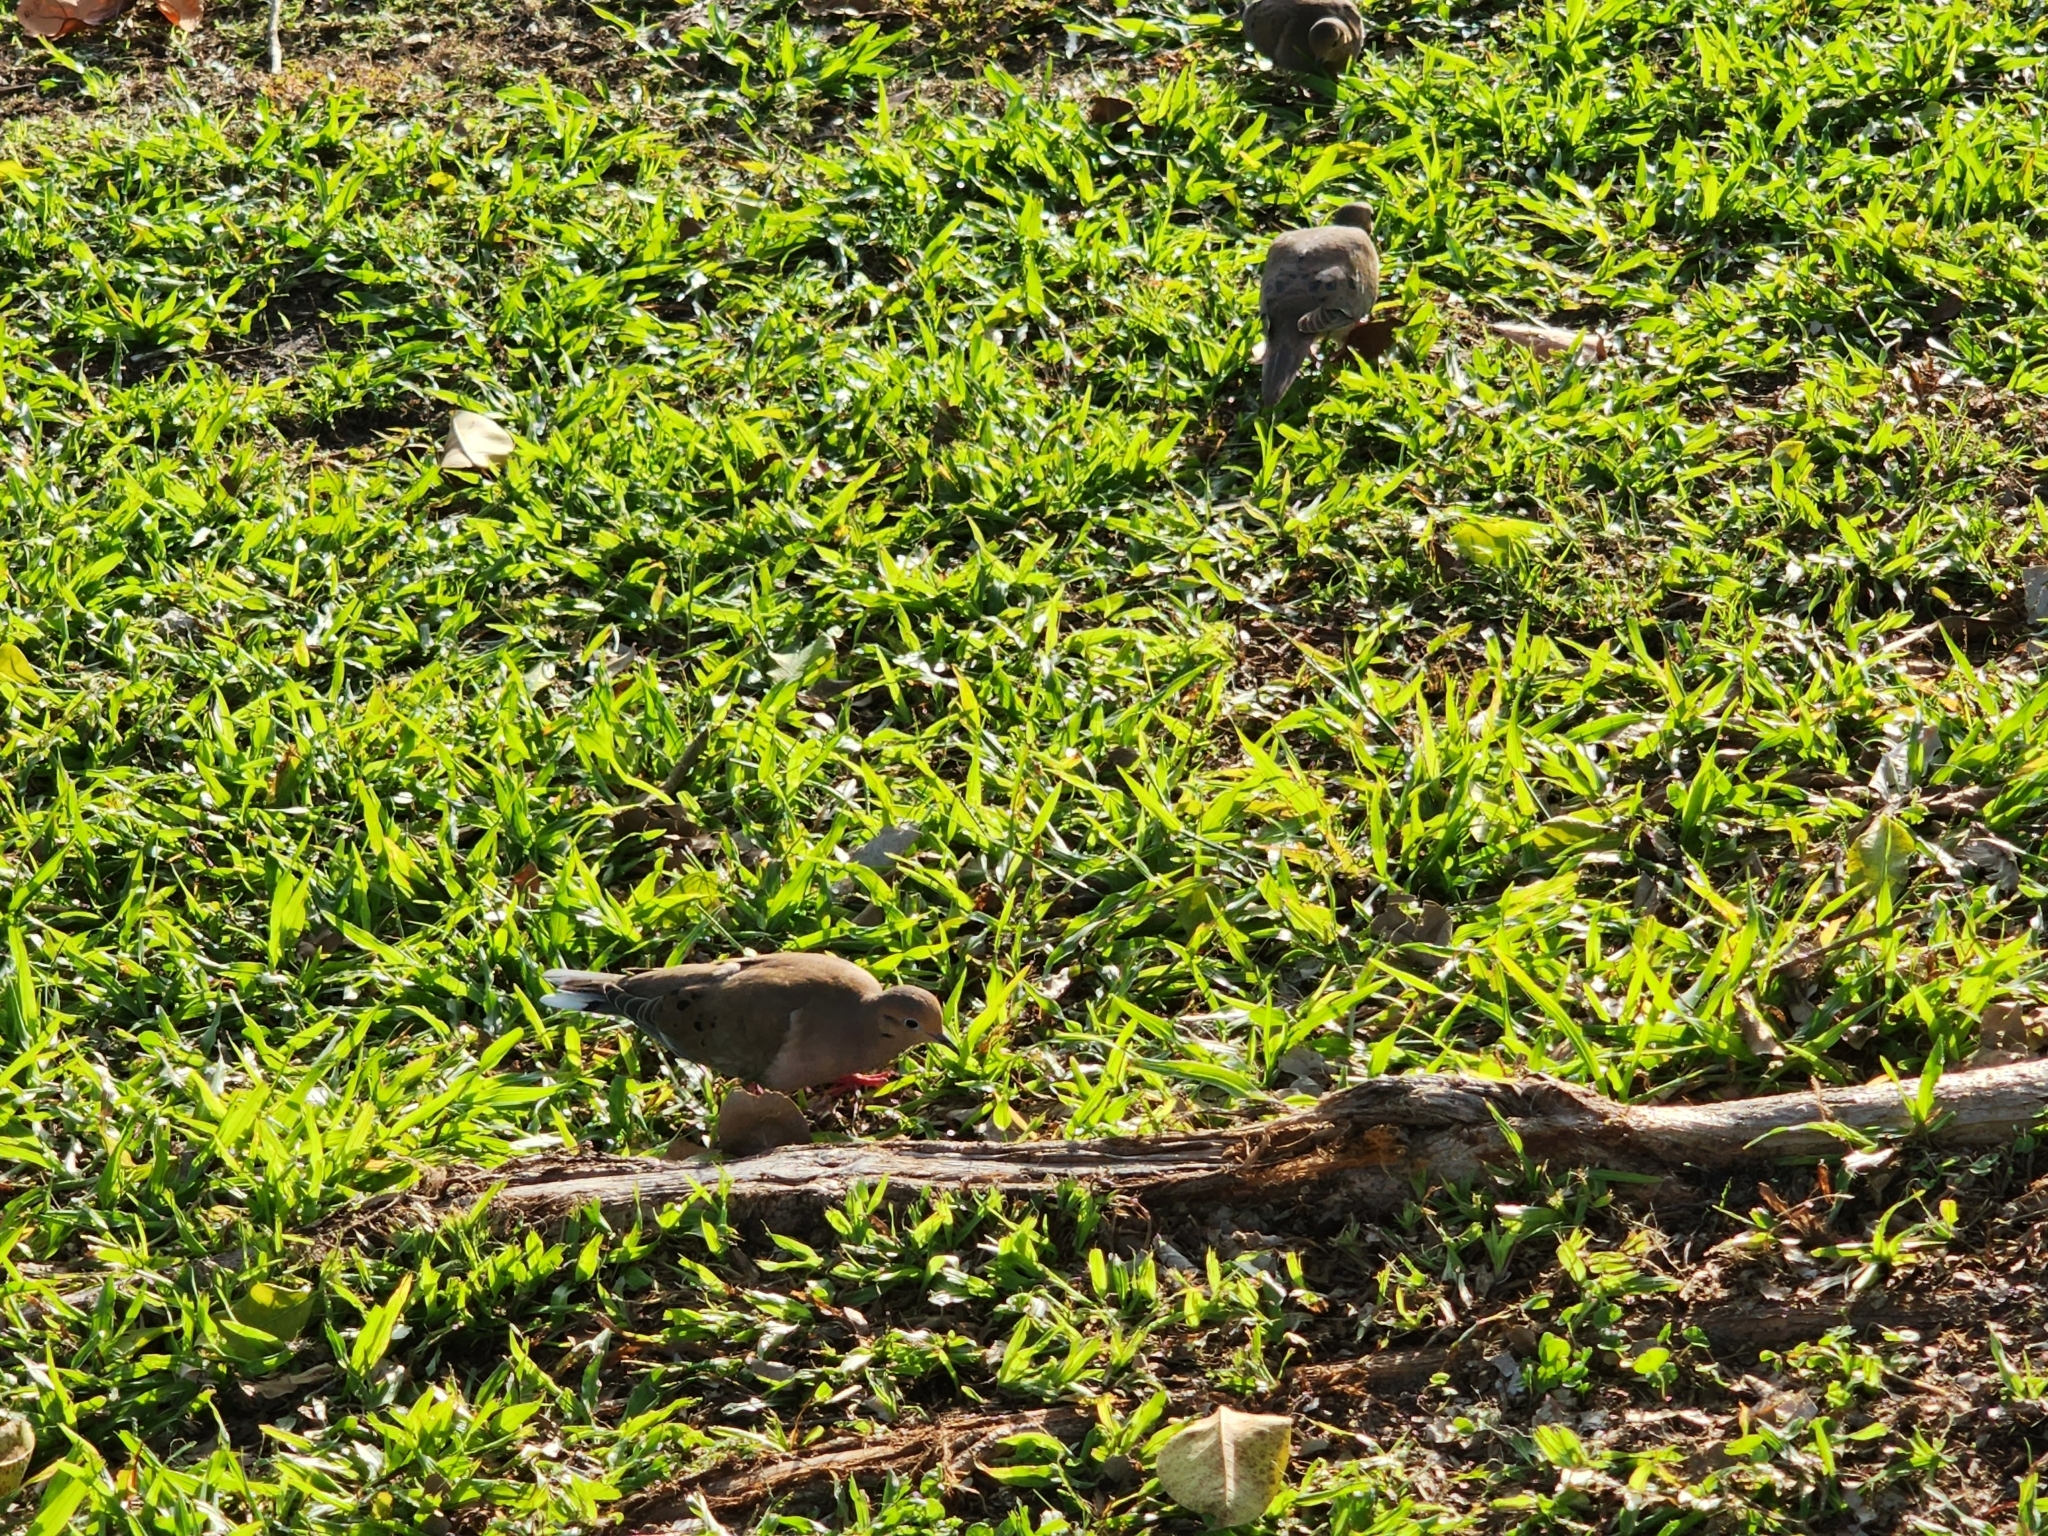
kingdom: Animalia
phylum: Chordata
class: Aves
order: Columbiformes
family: Columbidae
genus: Zenaida
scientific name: Zenaida macroura
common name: Mourning dove
